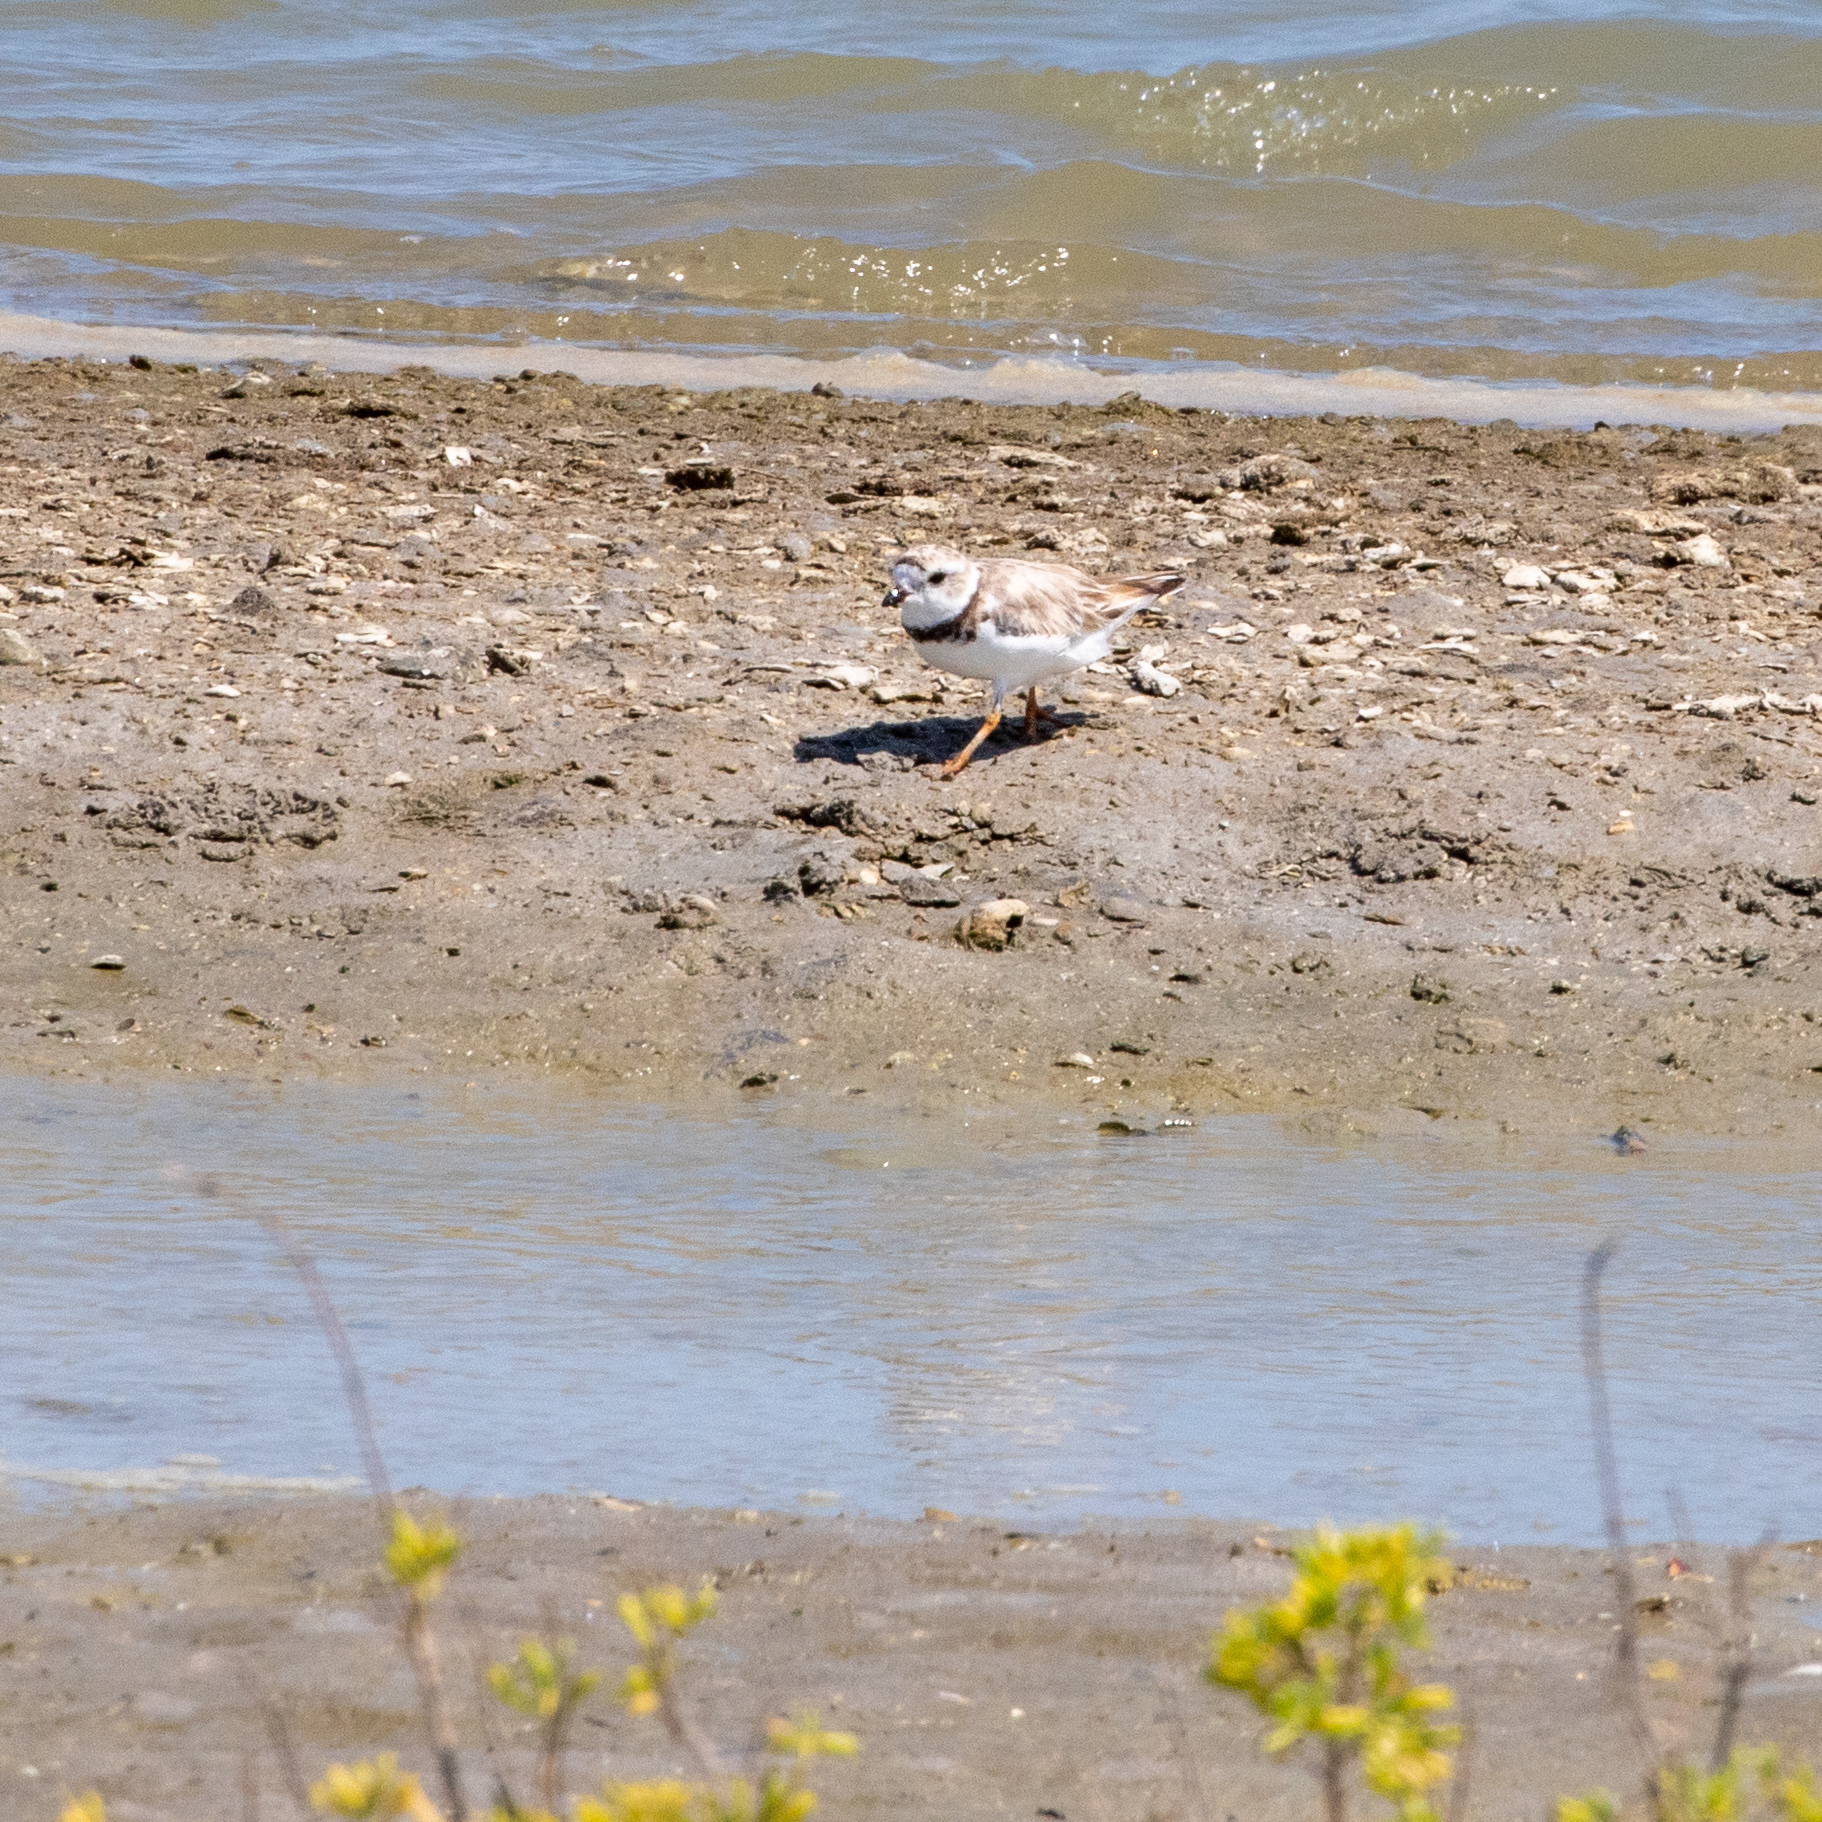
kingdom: Animalia
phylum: Chordata
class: Aves
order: Charadriiformes
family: Charadriidae
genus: Charadrius
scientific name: Charadrius melodus
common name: Piping plover
